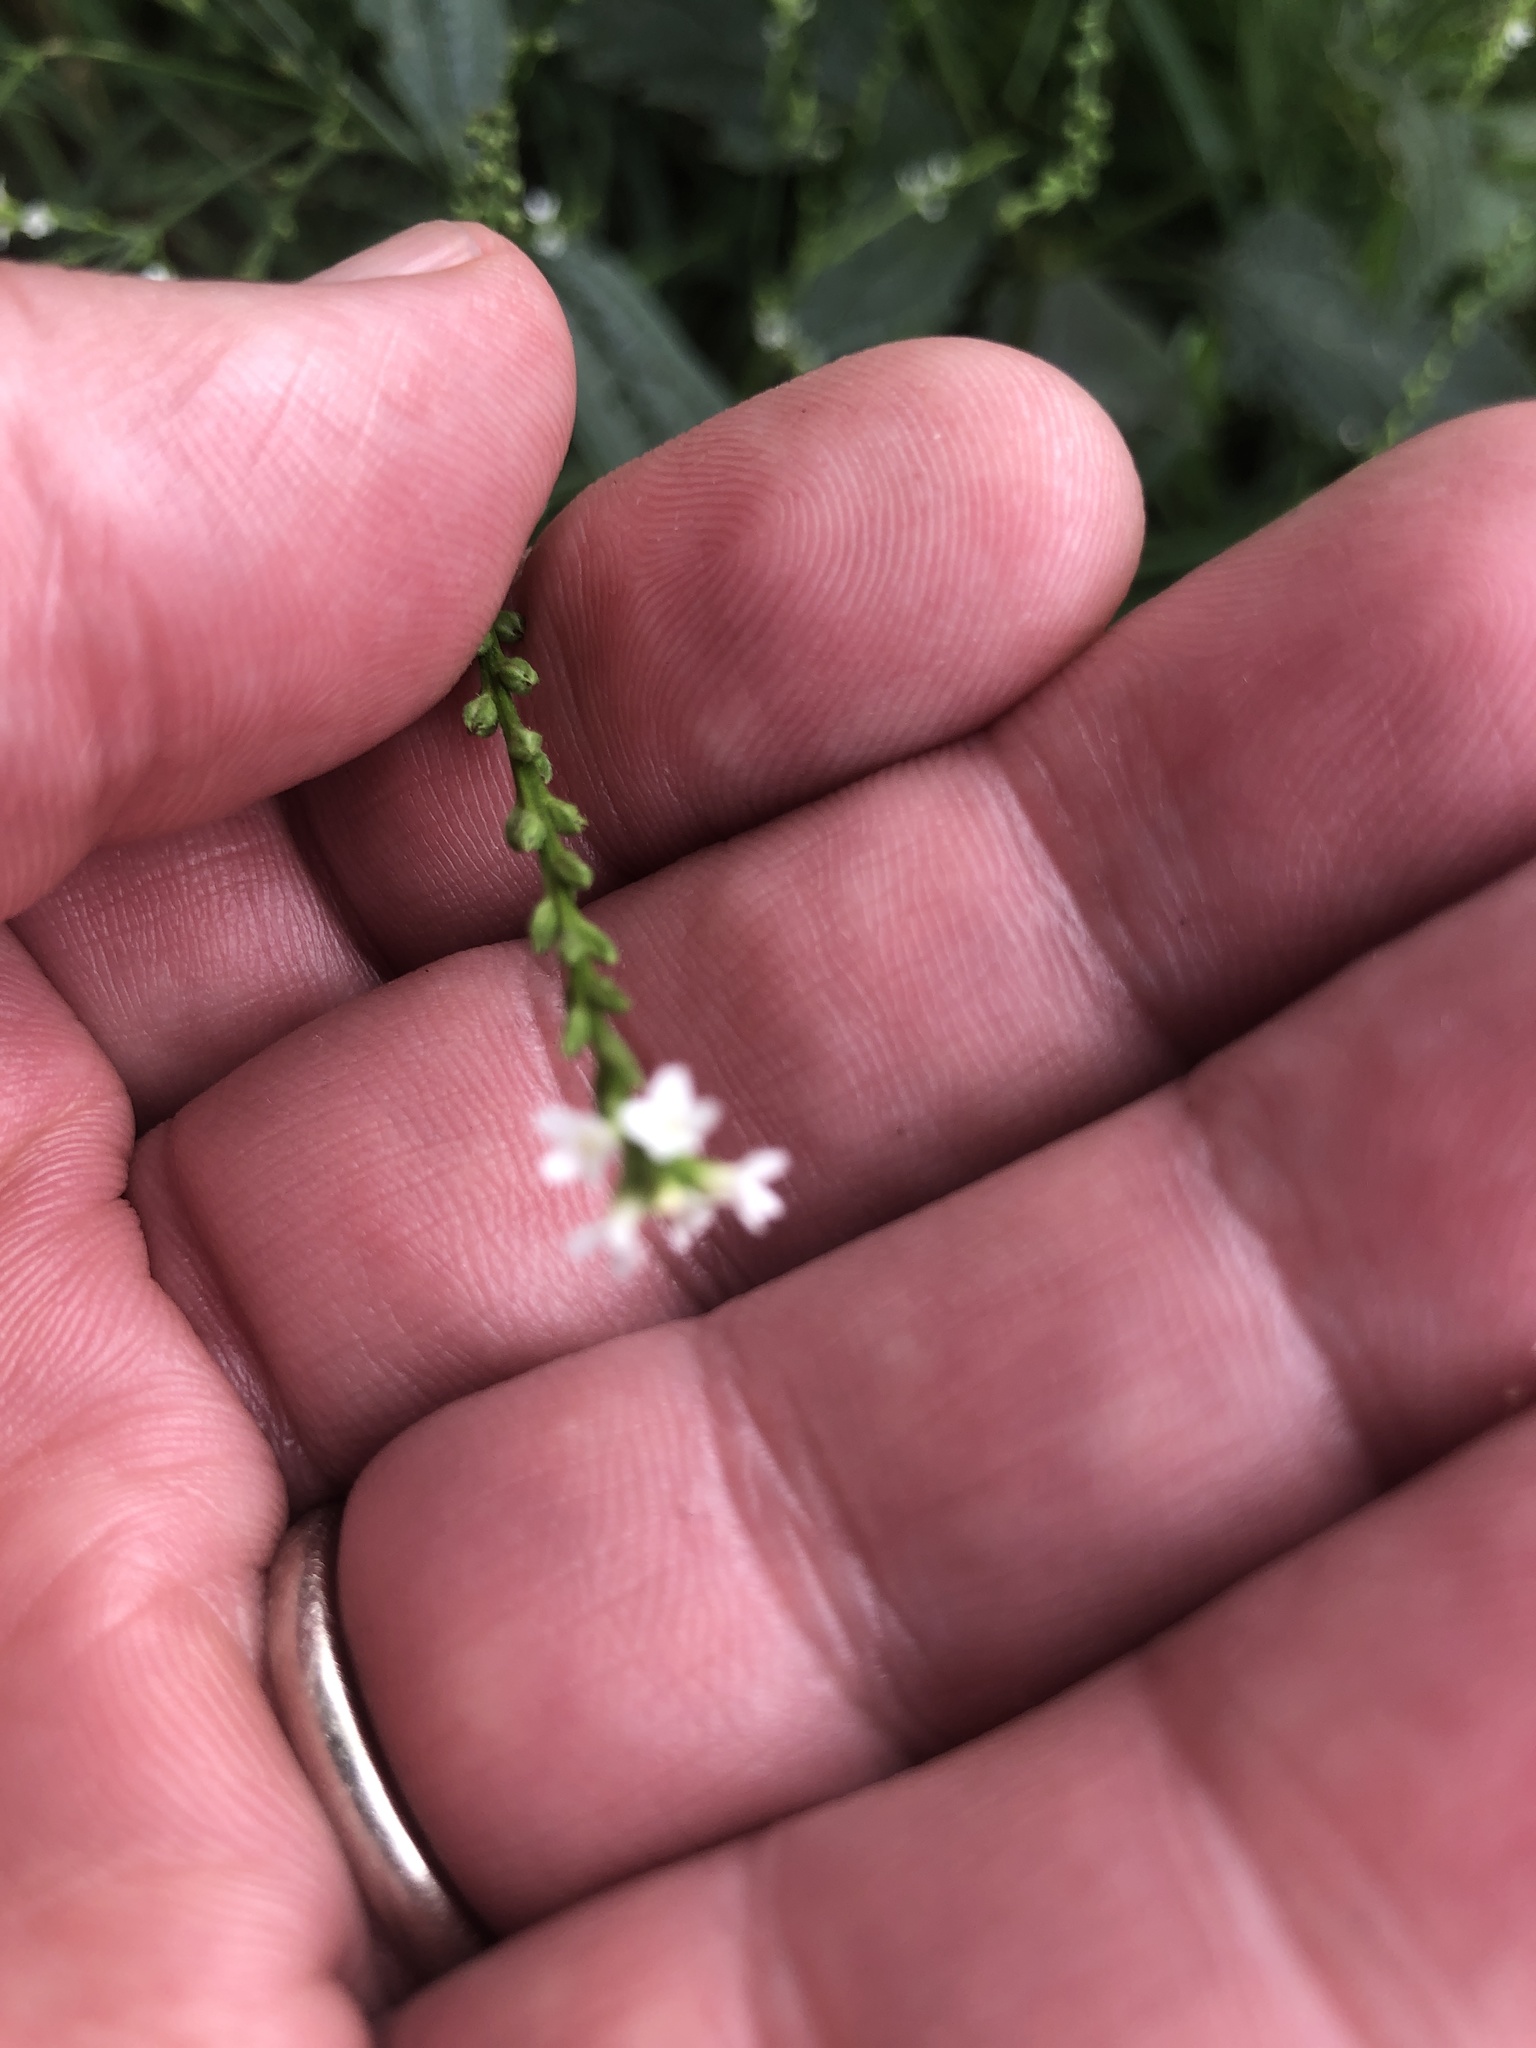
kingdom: Plantae
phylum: Tracheophyta
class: Magnoliopsida
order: Lamiales
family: Verbenaceae
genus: Verbena
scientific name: Verbena urticifolia
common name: Nettle-leaved vervain
